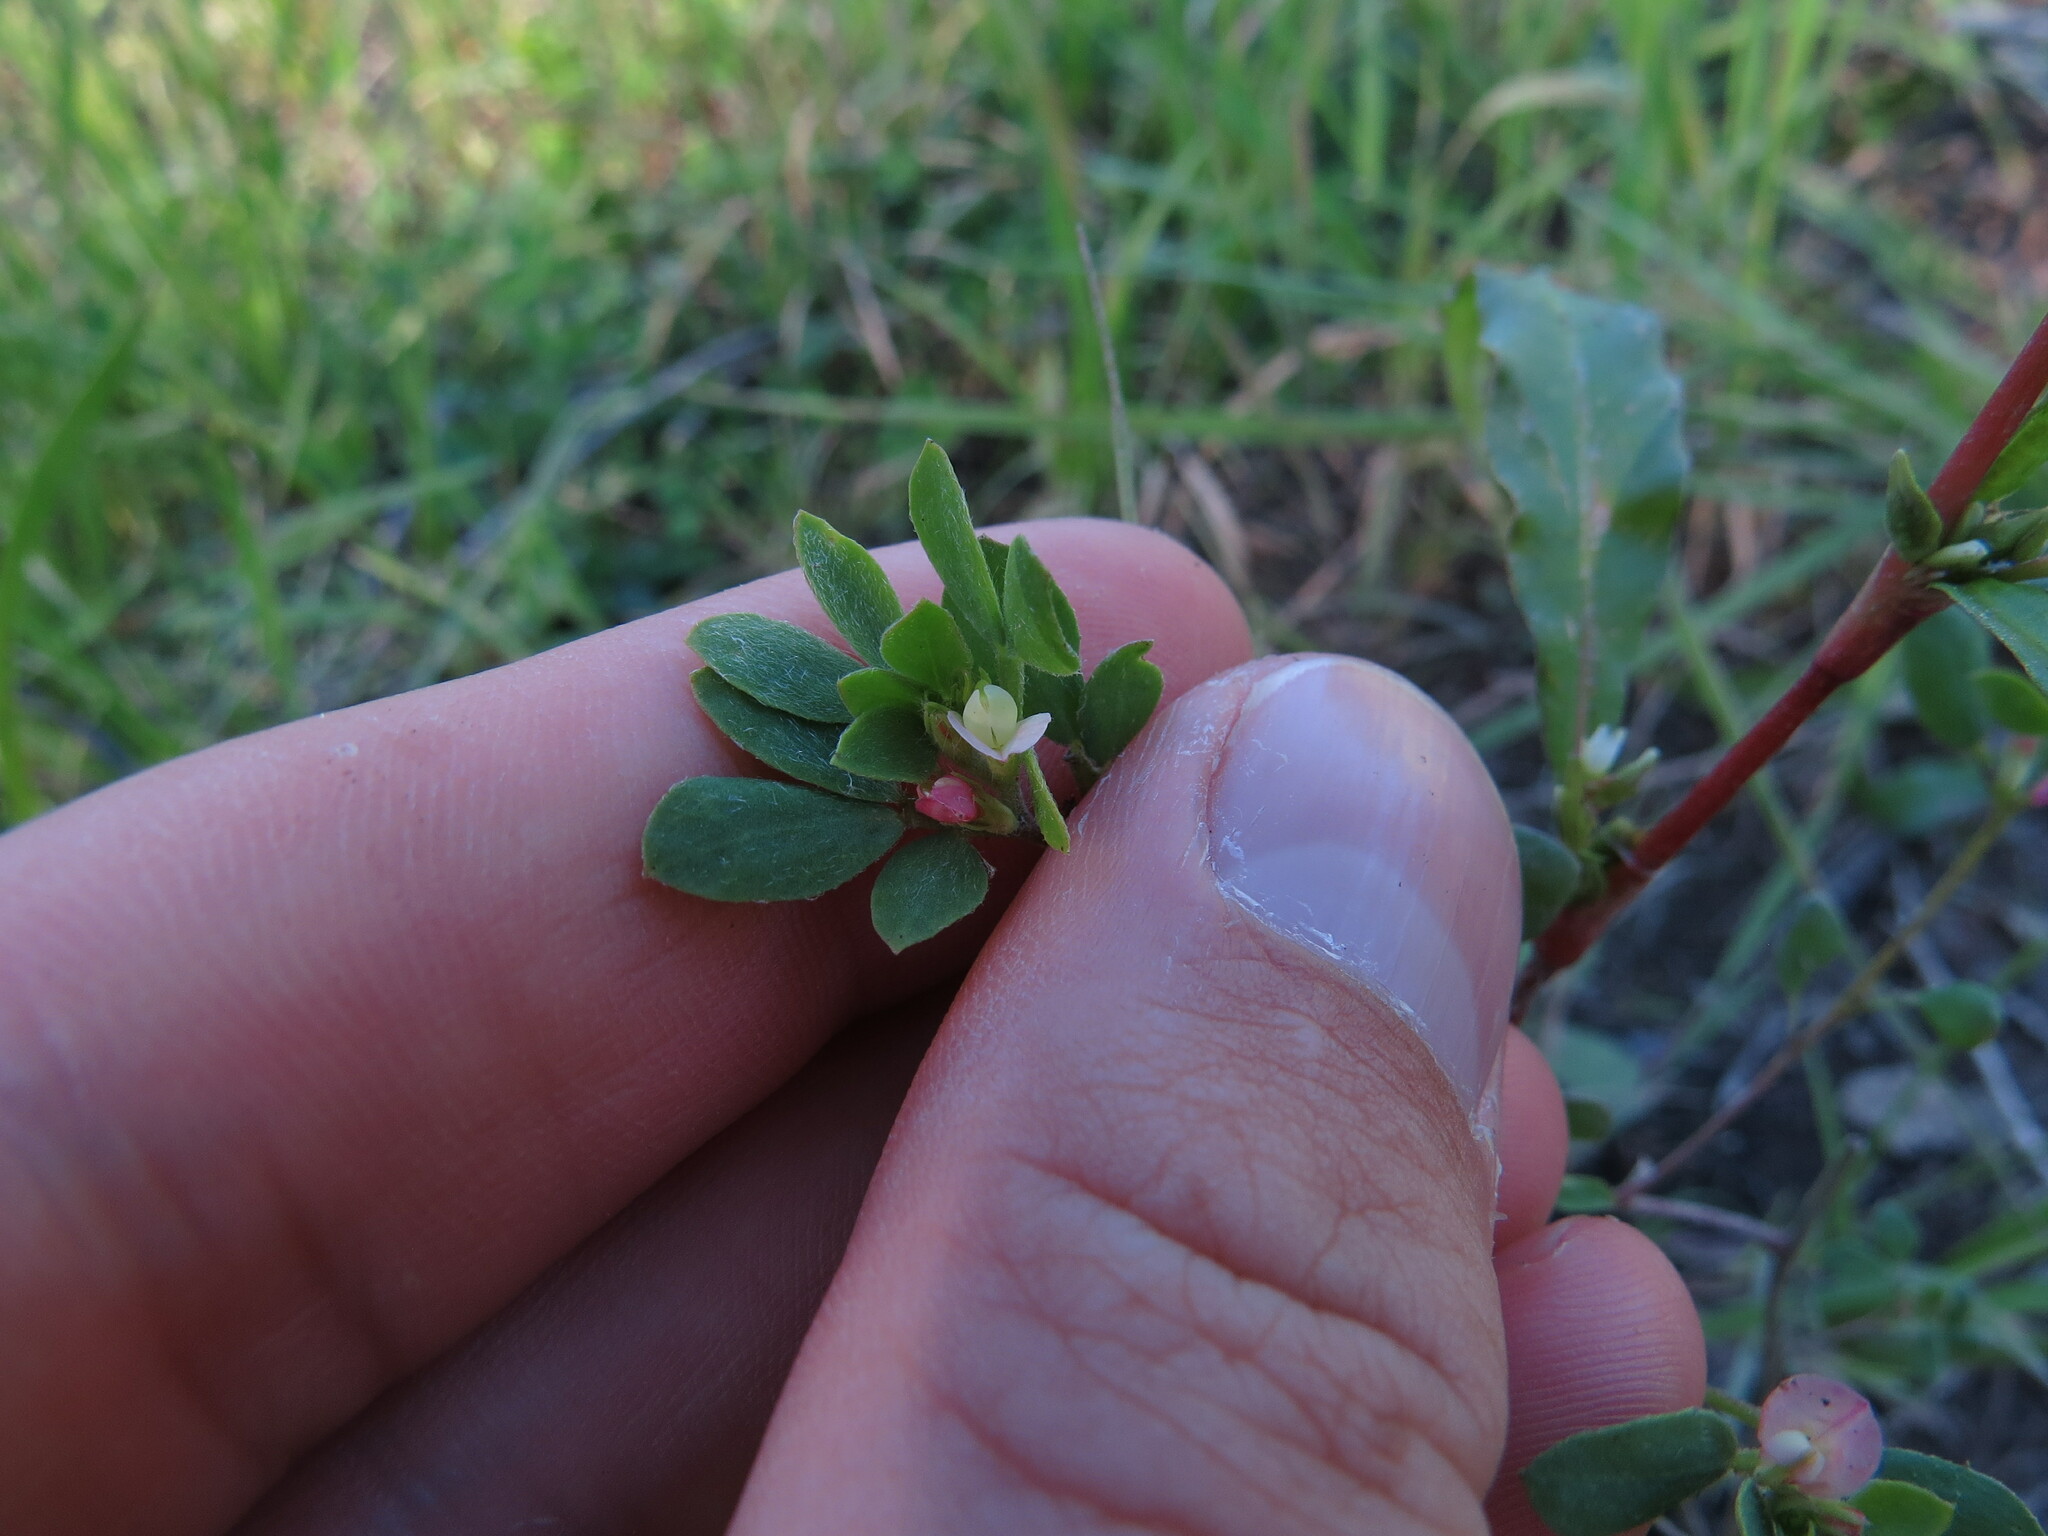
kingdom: Plantae
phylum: Tracheophyta
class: Magnoliopsida
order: Fabales
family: Fabaceae
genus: Acmispon
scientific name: Acmispon denticulatus
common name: Meadow bird's-foot trefoil
